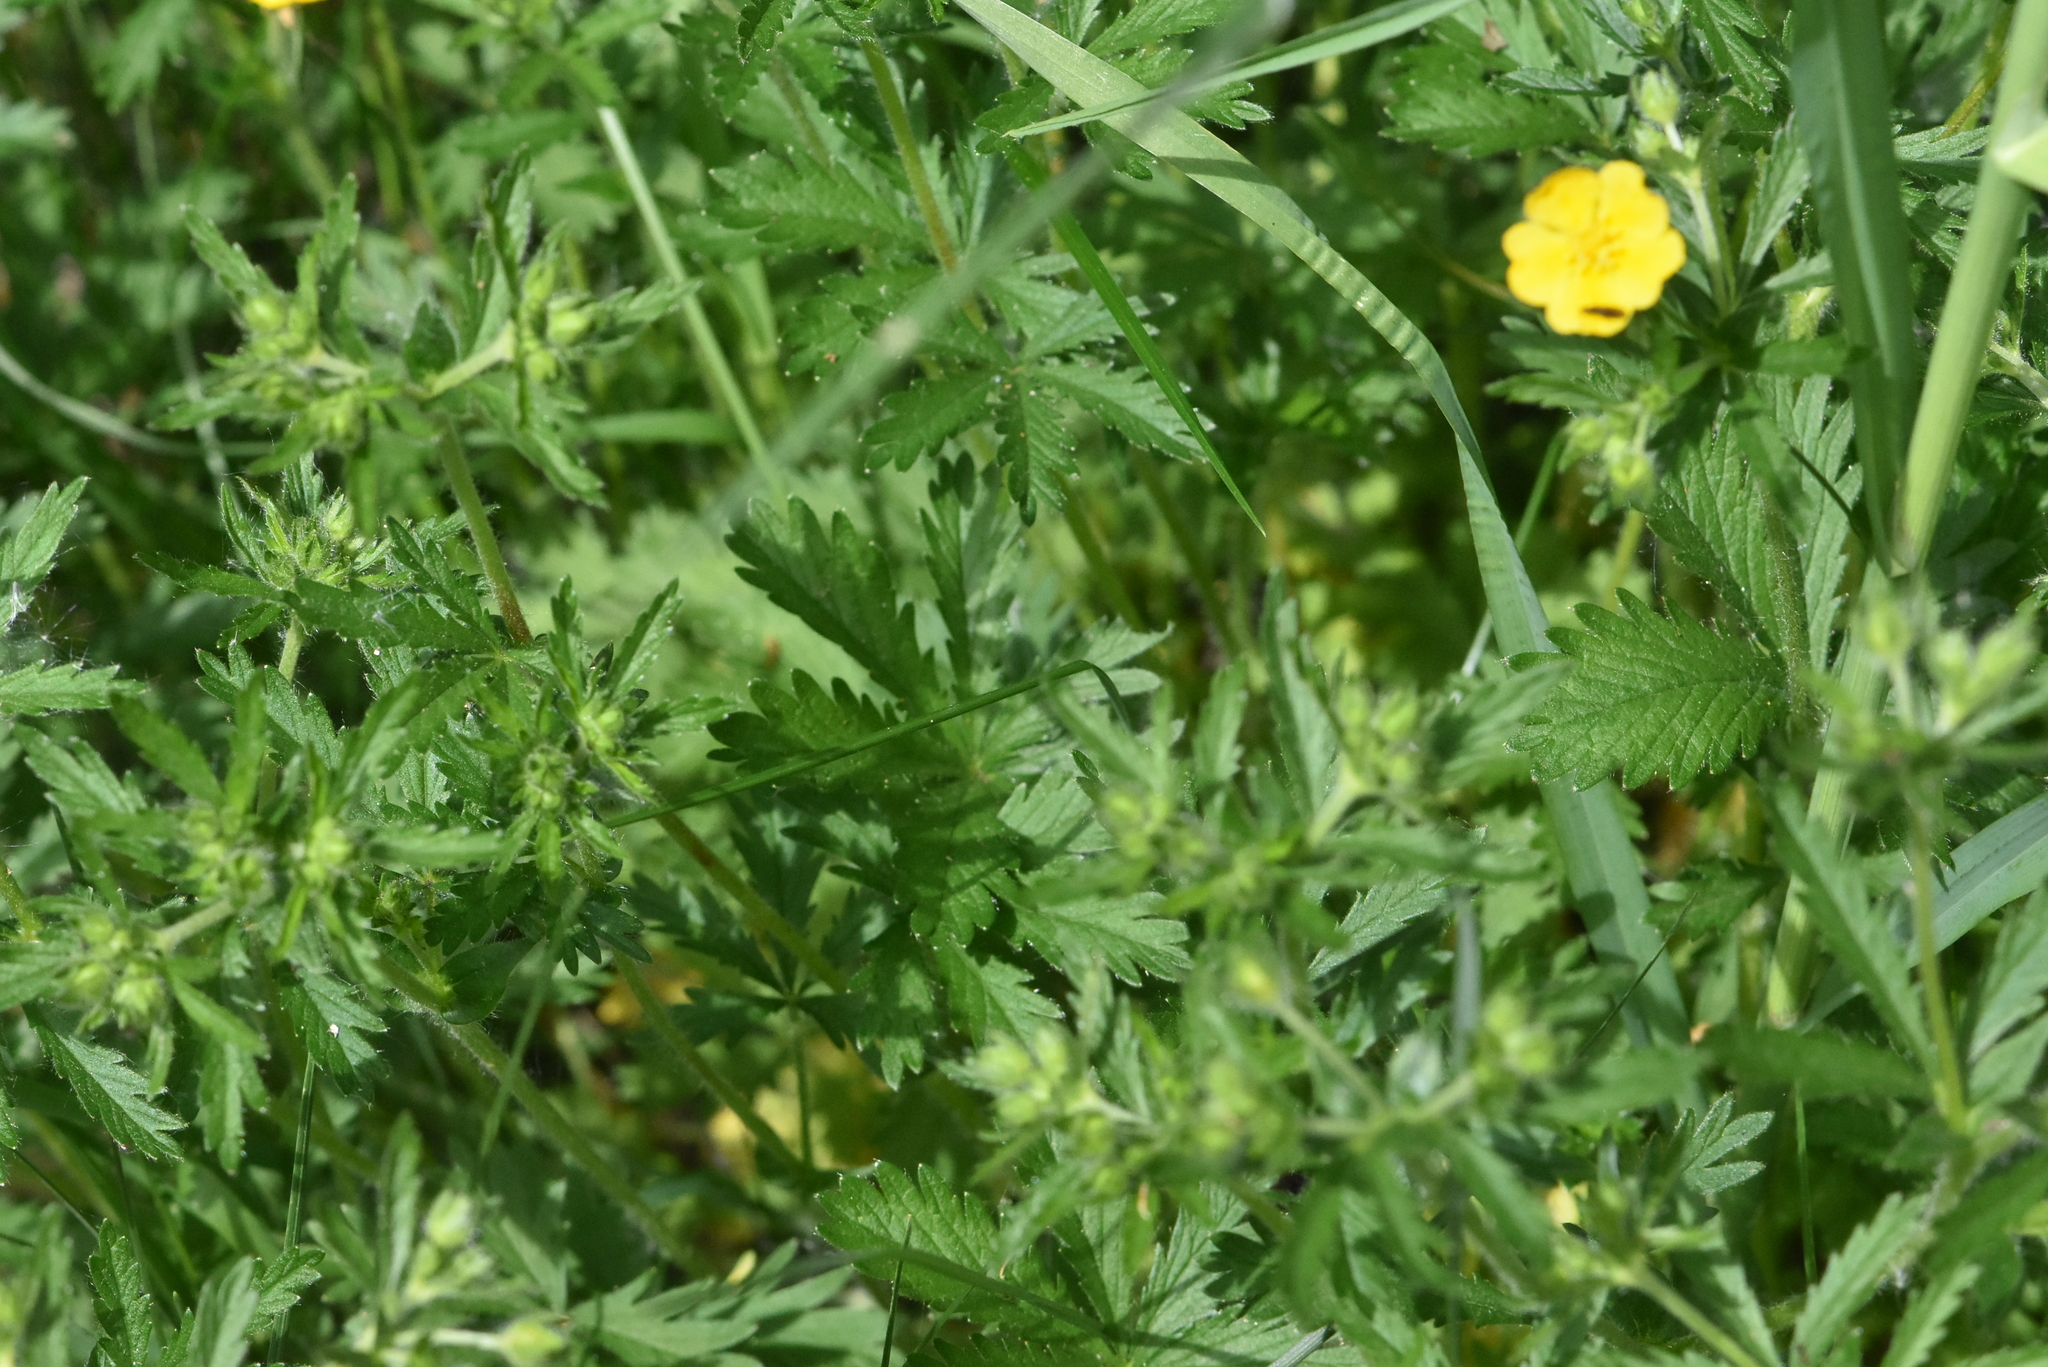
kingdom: Plantae
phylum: Tracheophyta
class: Magnoliopsida
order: Rosales
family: Rosaceae
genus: Potentilla
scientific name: Potentilla thuringiaca
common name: European cinquefoil
